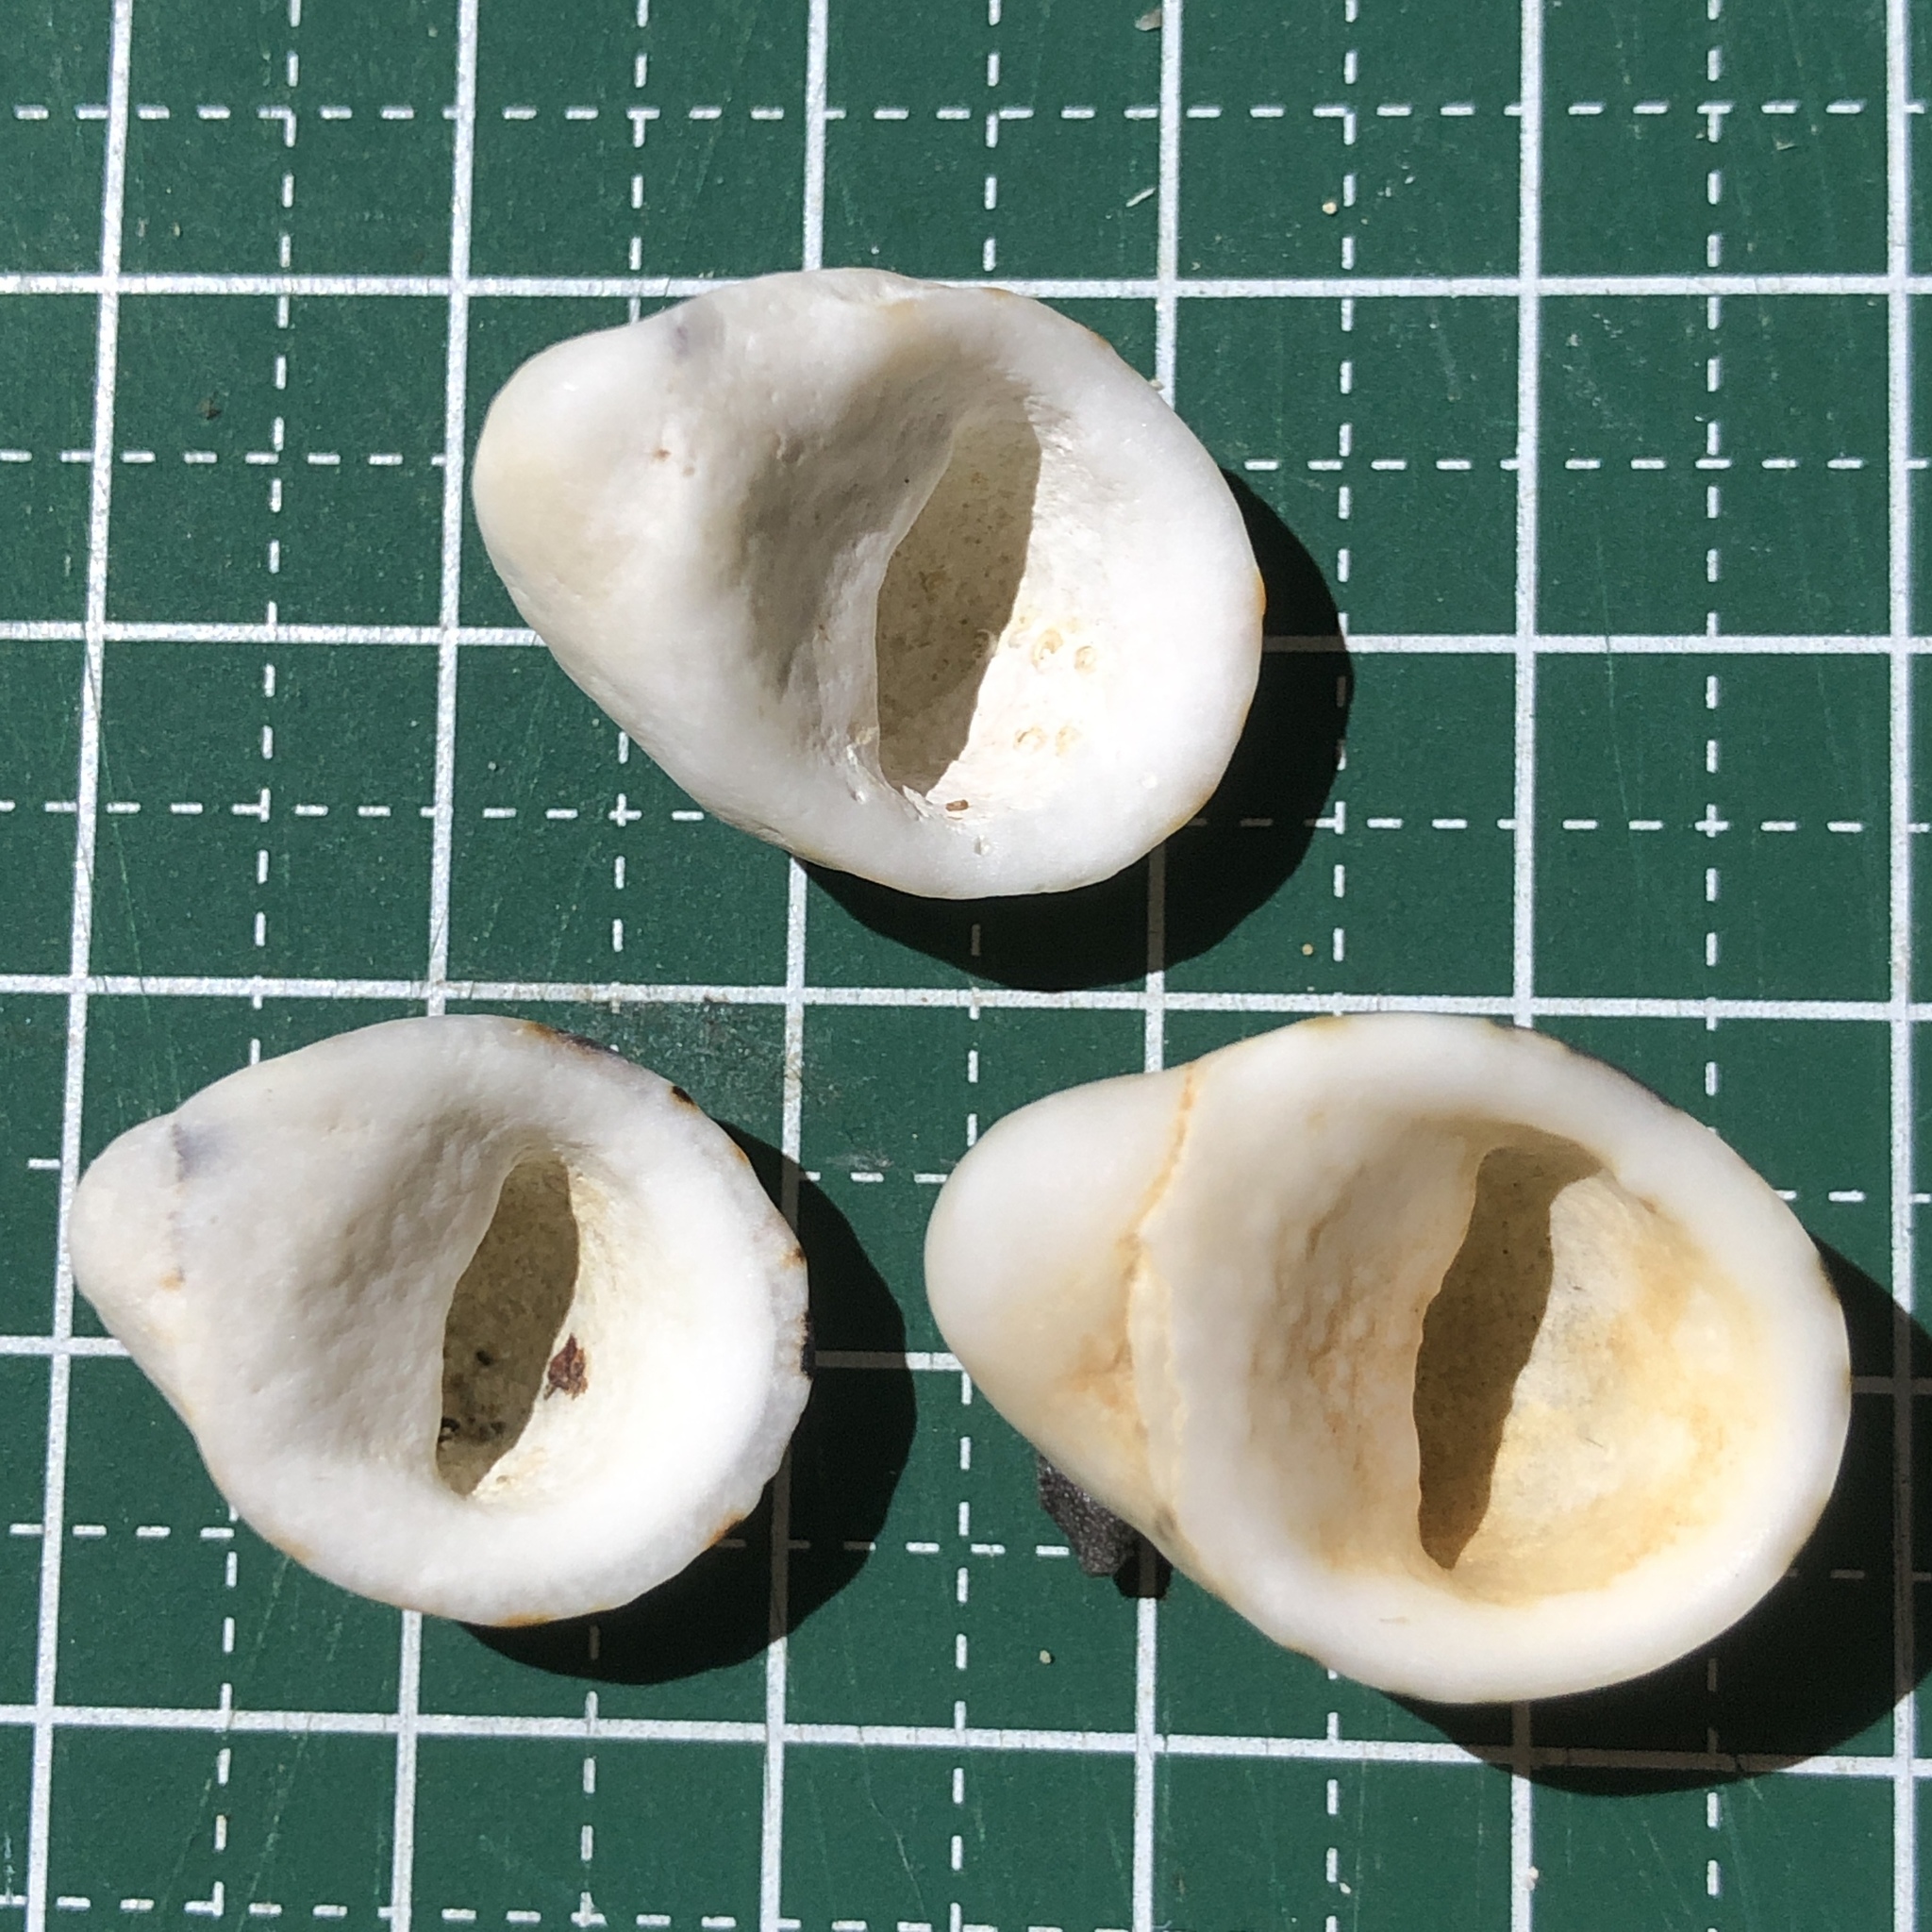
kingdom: Animalia
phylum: Mollusca
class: Gastropoda
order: Cycloneritida
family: Neritidae
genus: Nerita
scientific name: Nerita albicilla
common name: Blotched nerite
